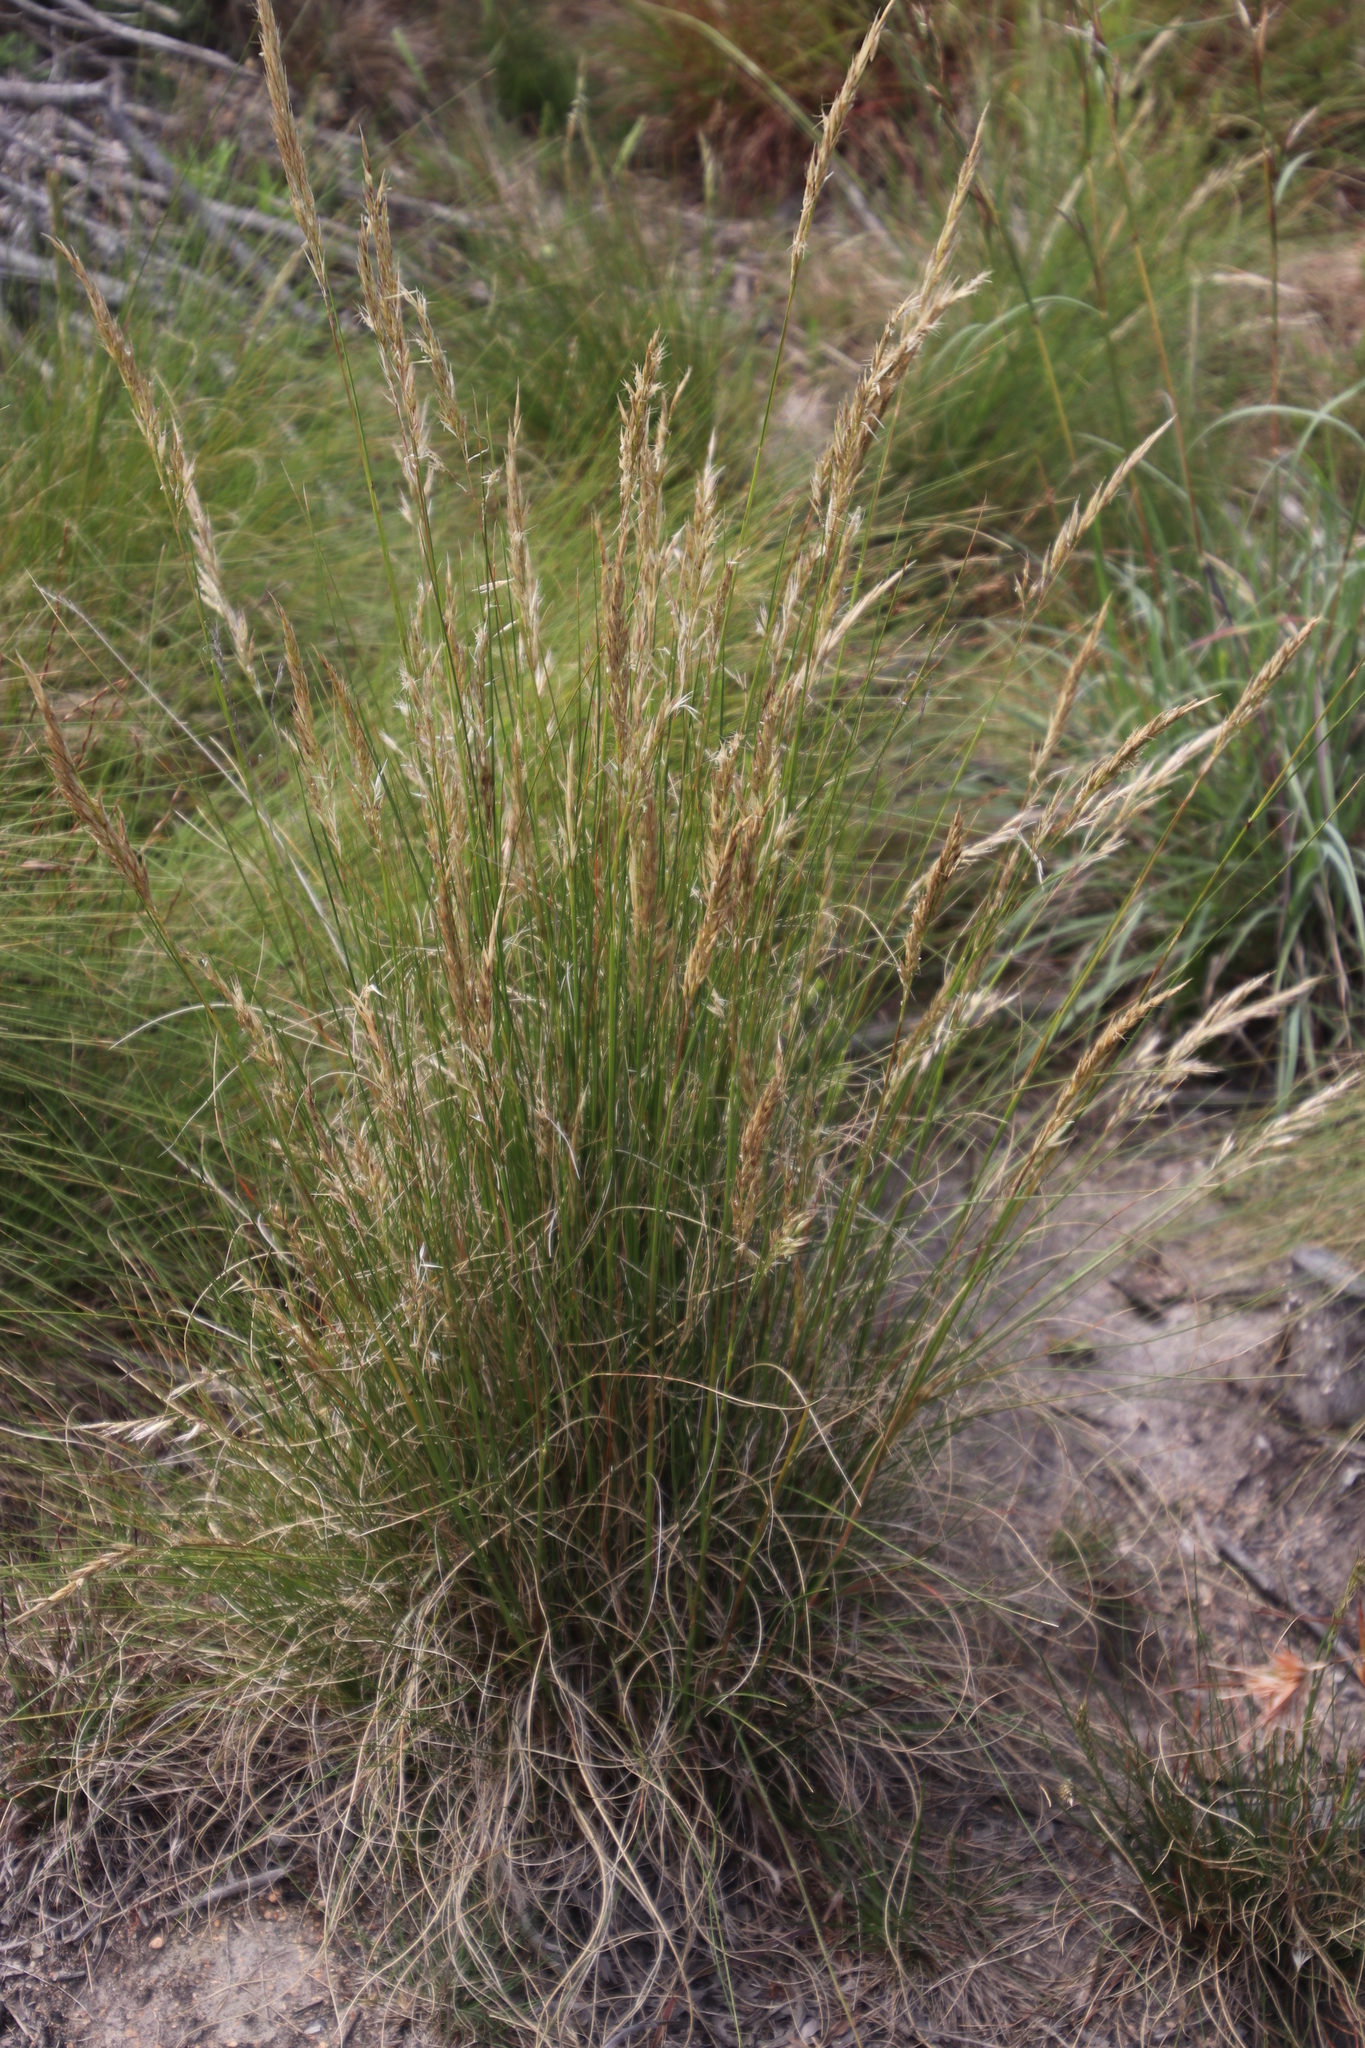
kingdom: Plantae
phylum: Tracheophyta
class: Liliopsida
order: Poales
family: Poaceae
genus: Tenaxia
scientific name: Tenaxia stricta
